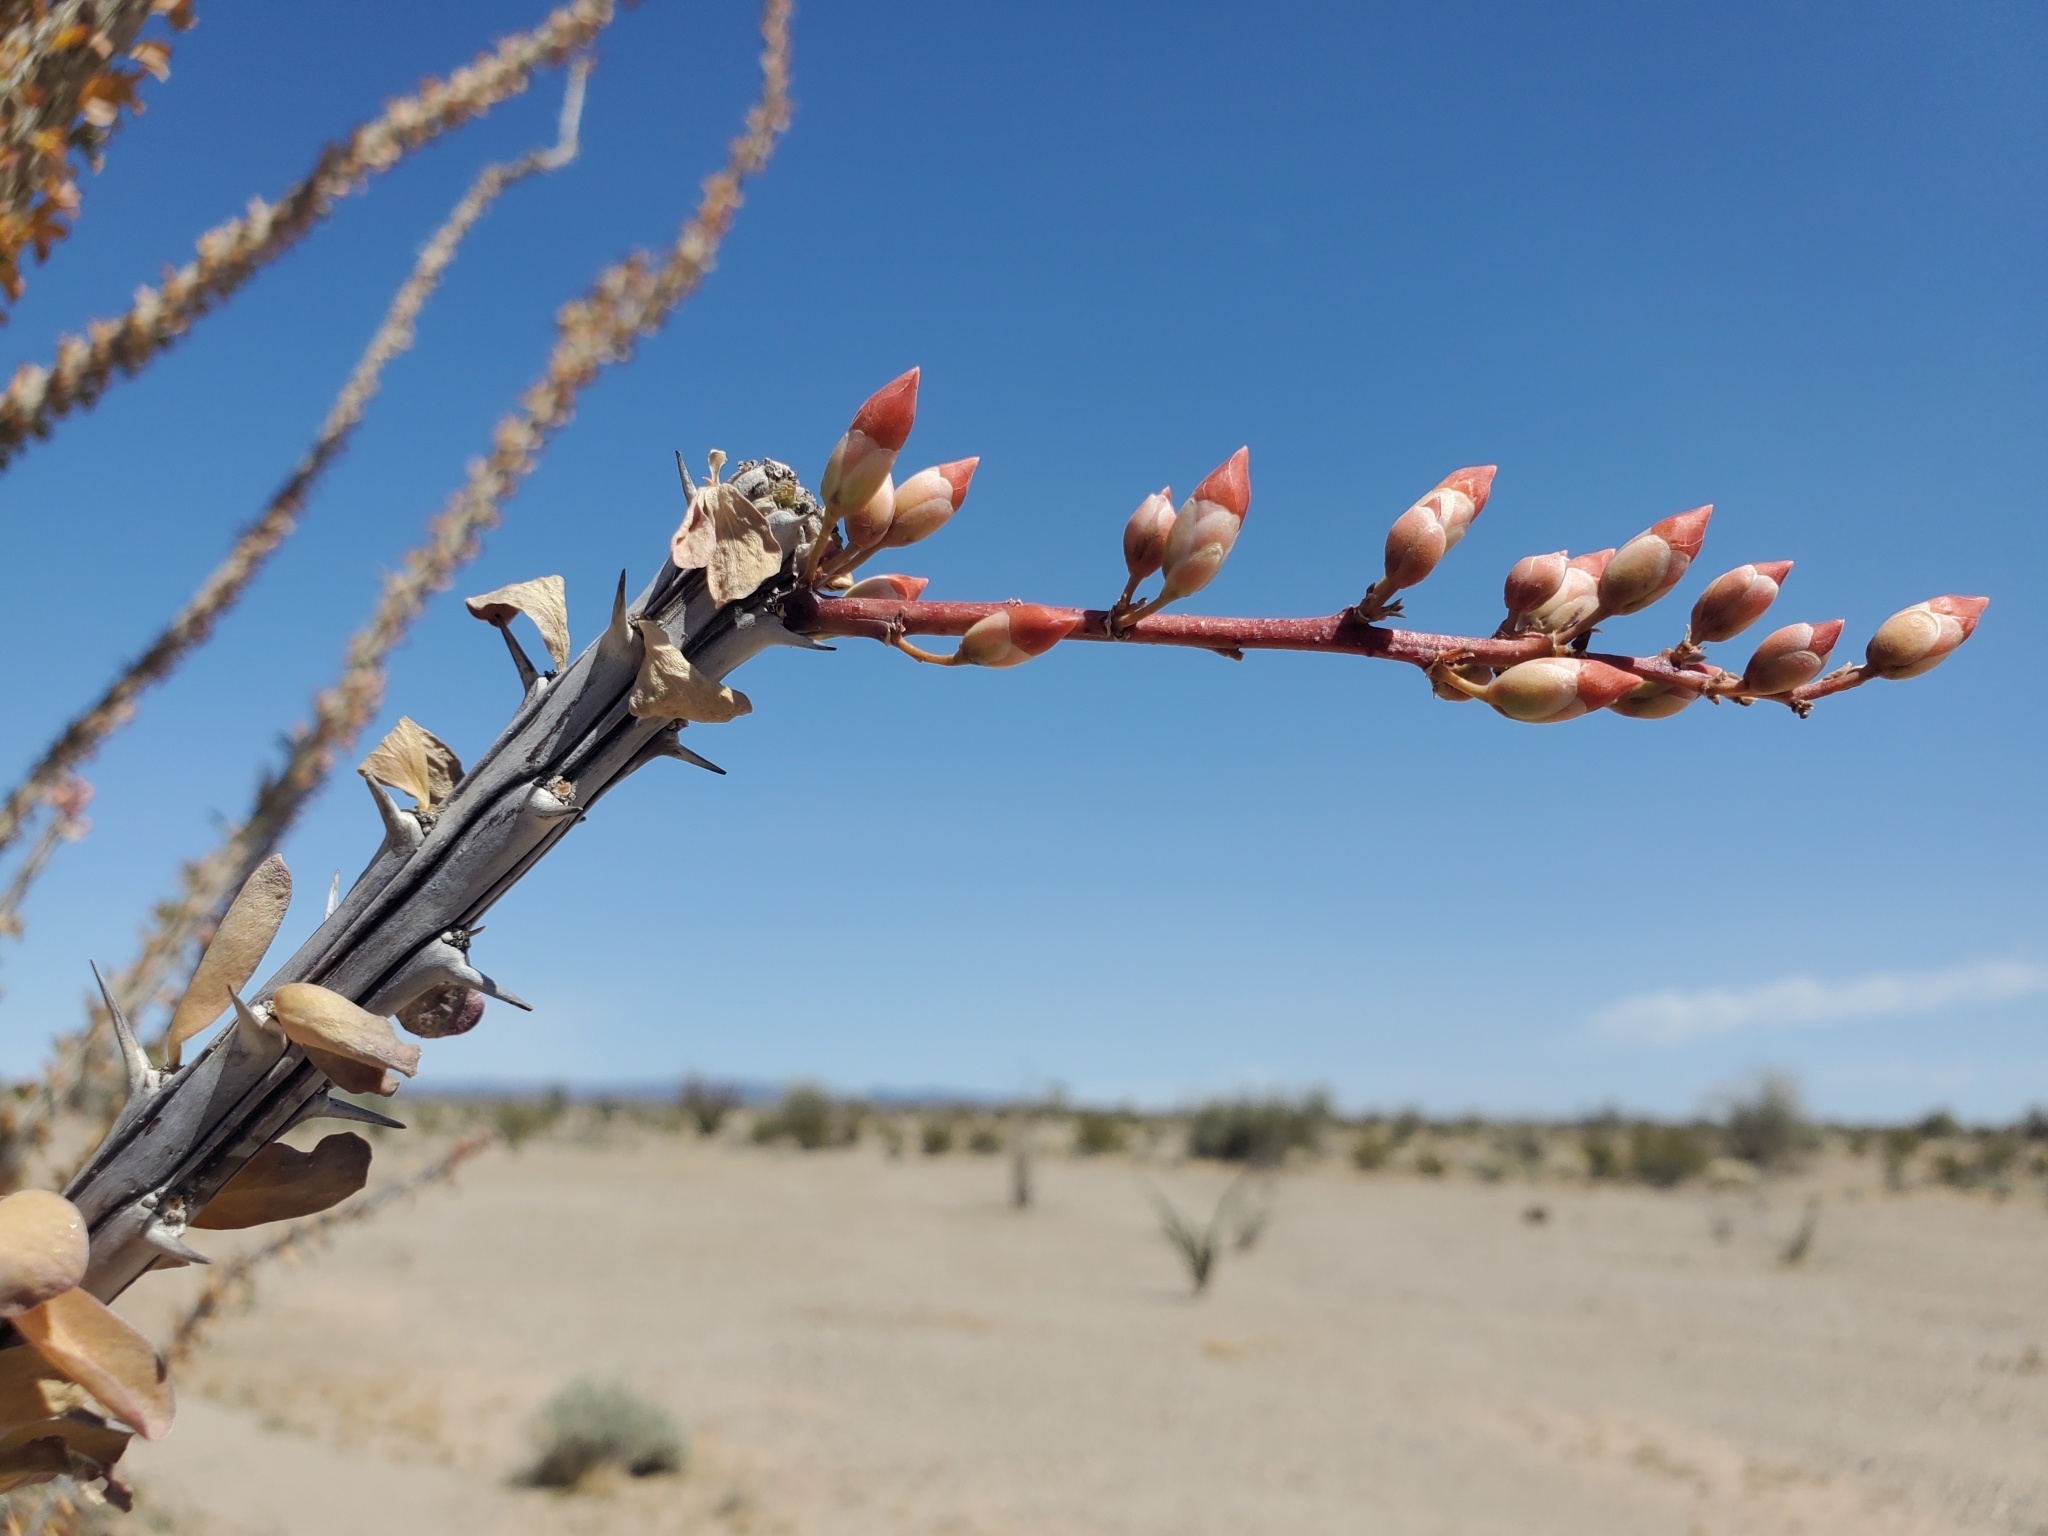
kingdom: Plantae
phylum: Tracheophyta
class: Magnoliopsida
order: Ericales
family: Fouquieriaceae
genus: Fouquieria
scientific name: Fouquieria splendens
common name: Vine-cactus
